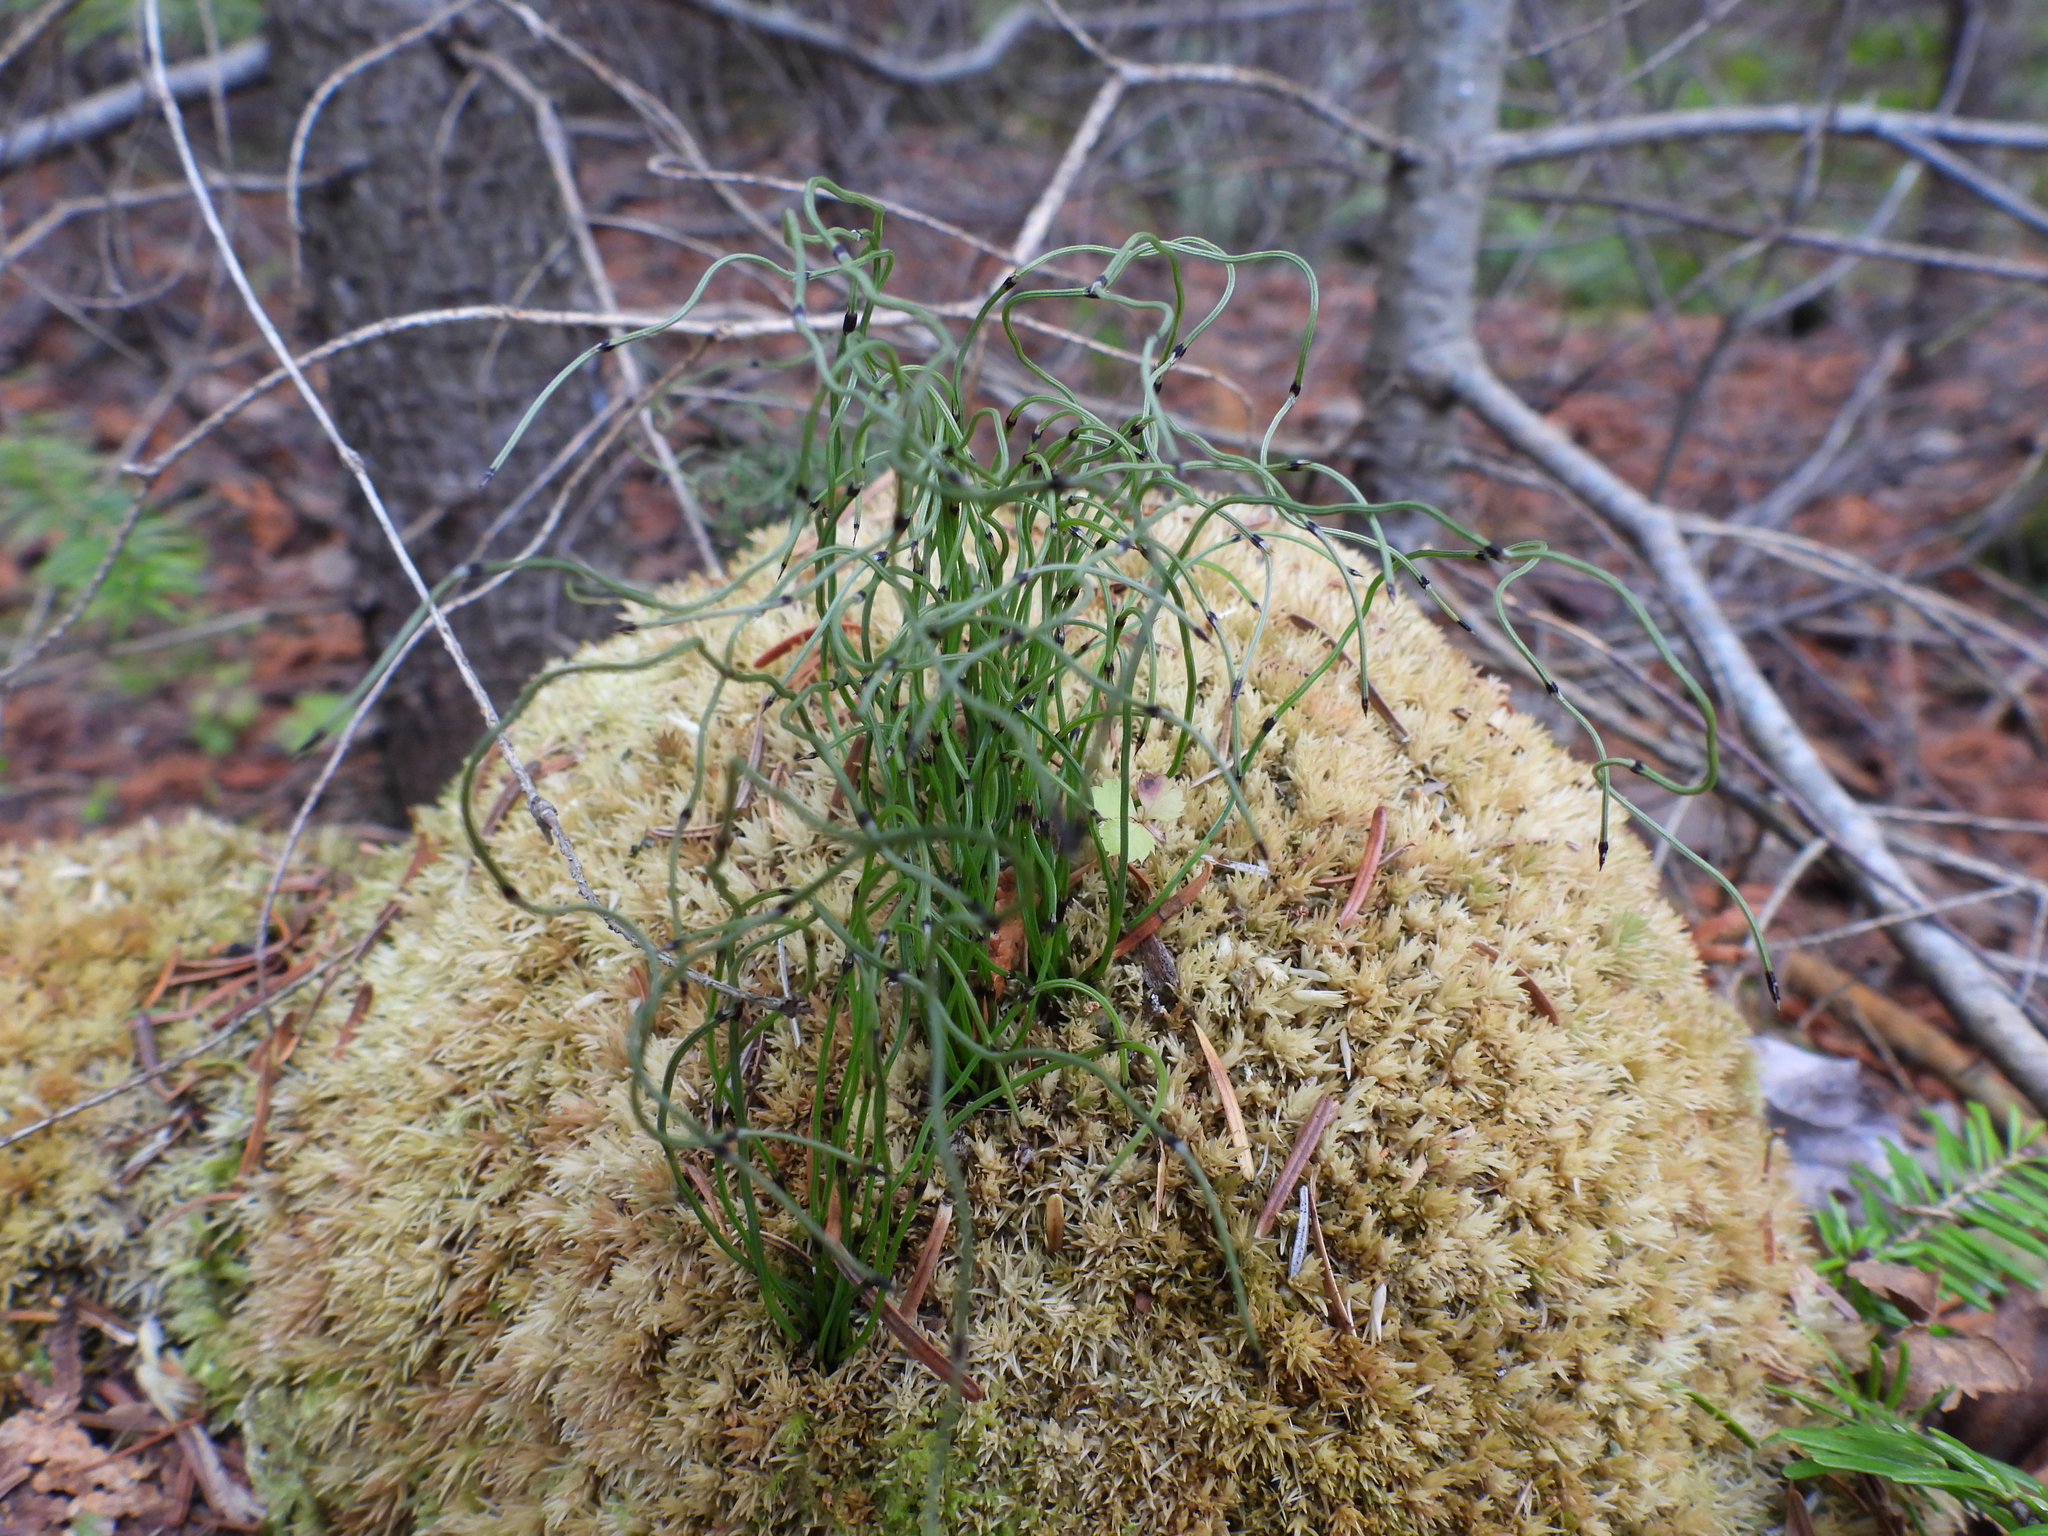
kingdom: Plantae
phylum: Tracheophyta
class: Polypodiopsida
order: Equisetales
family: Equisetaceae
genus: Equisetum
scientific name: Equisetum scirpoides
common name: Delicate horsetail
